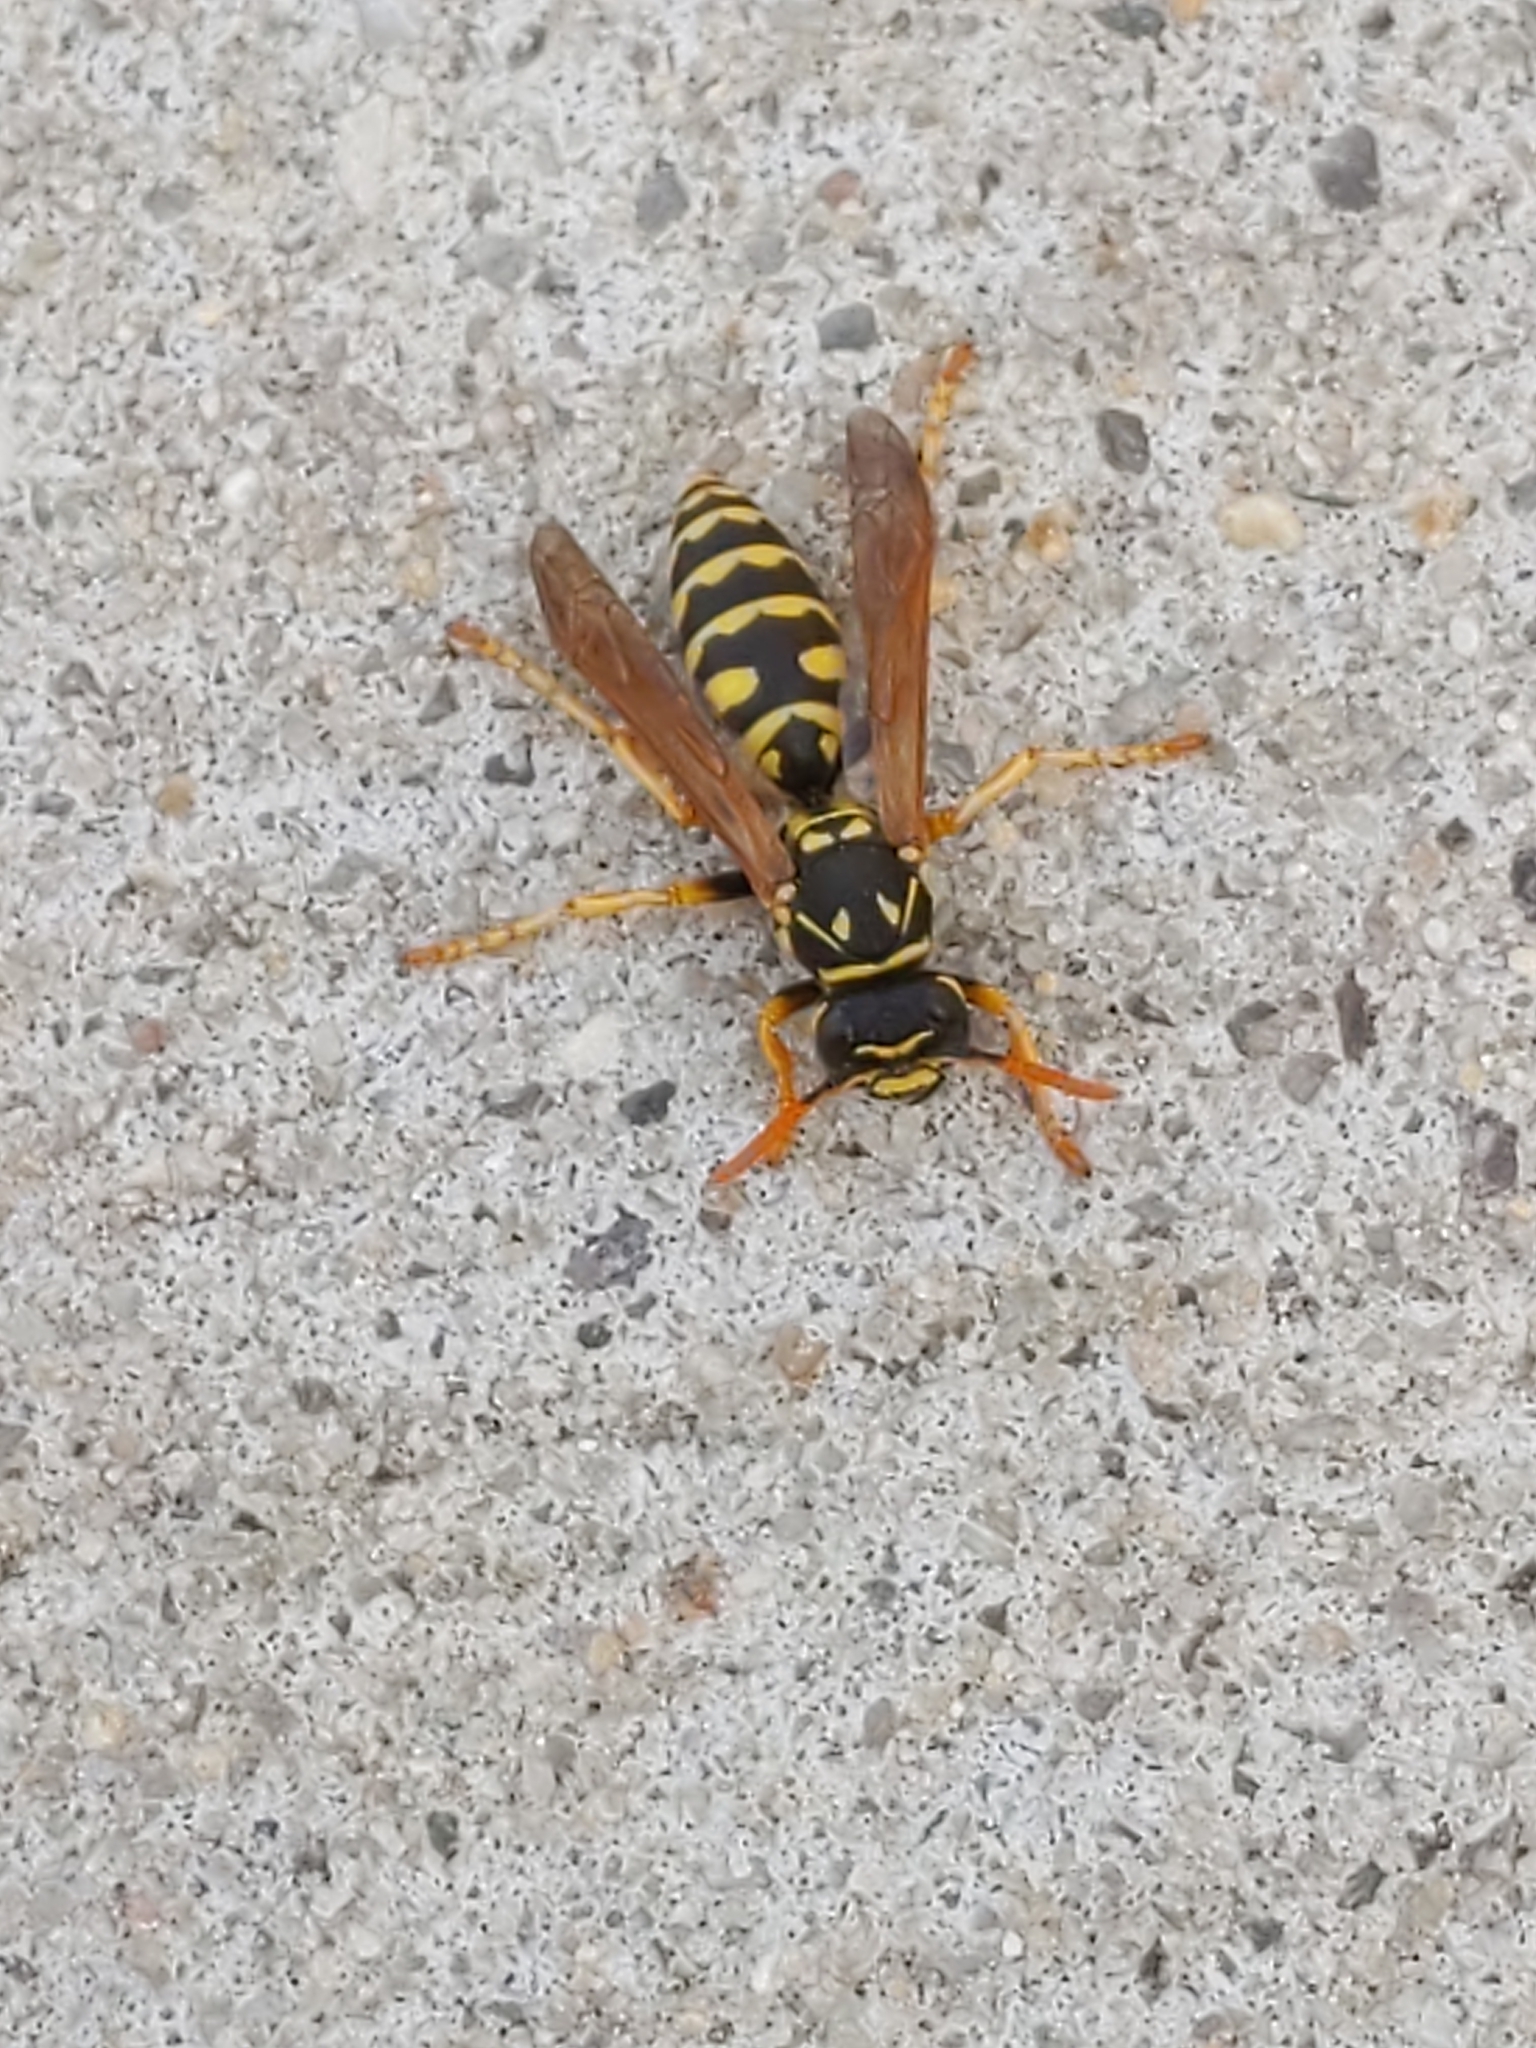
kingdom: Animalia
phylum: Arthropoda
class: Insecta
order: Hymenoptera
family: Eumenidae
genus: Polistes
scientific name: Polistes dominula
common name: Paper wasp
